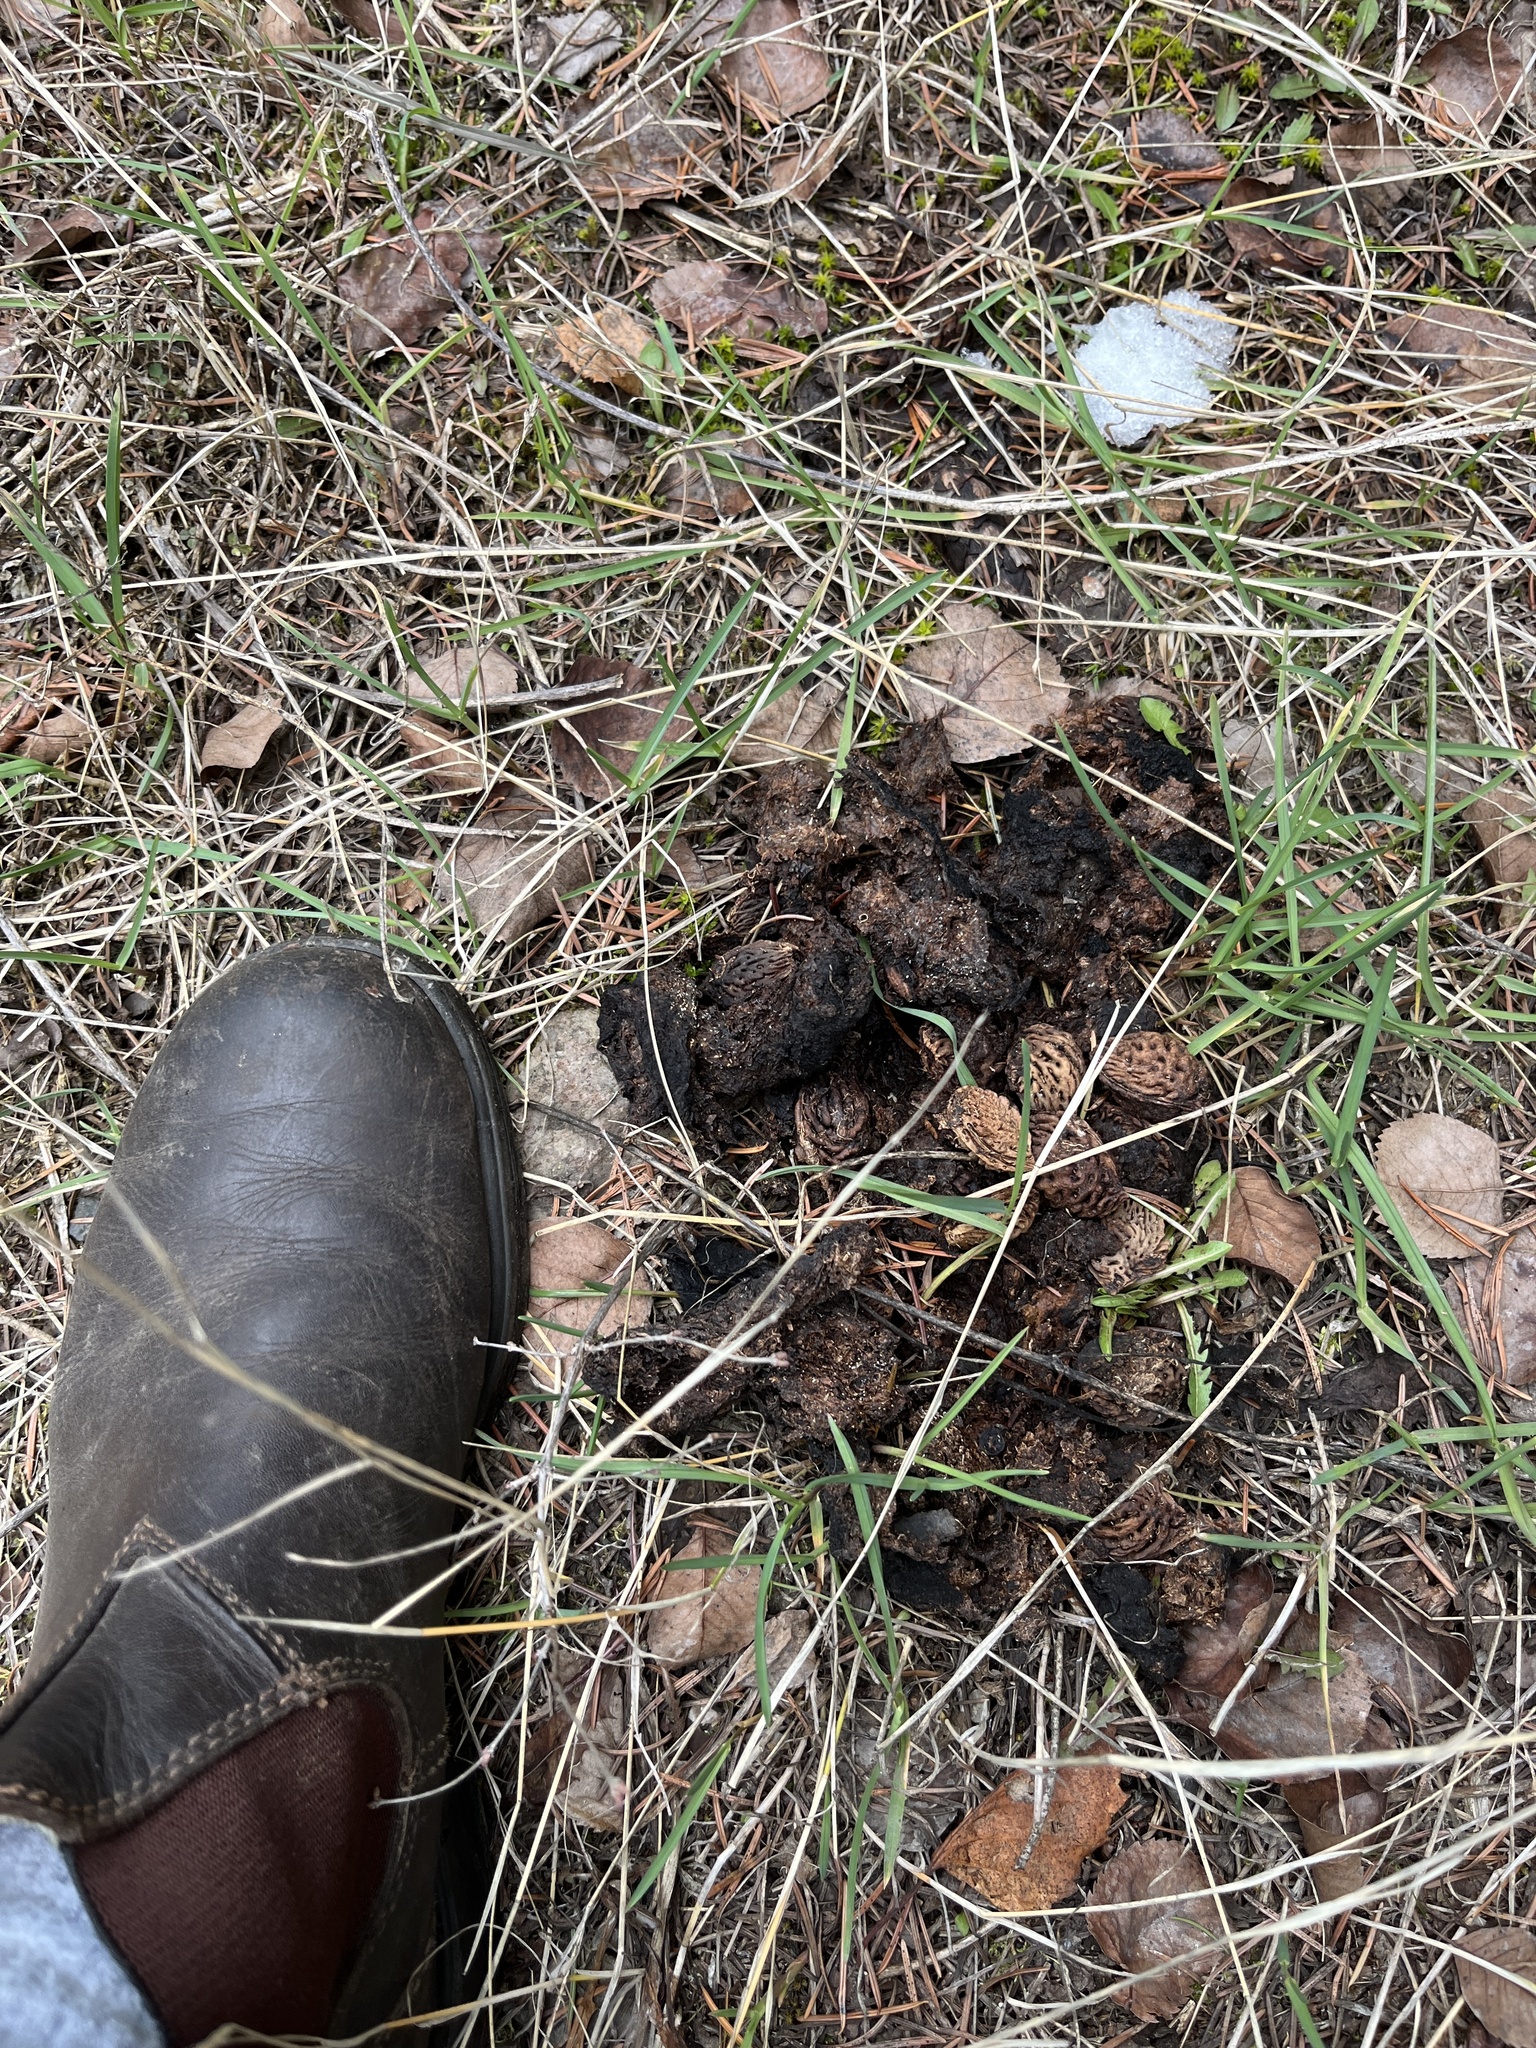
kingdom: Animalia
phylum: Chordata
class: Mammalia
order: Carnivora
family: Ursidae
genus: Ursus
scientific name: Ursus americanus
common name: American black bear
